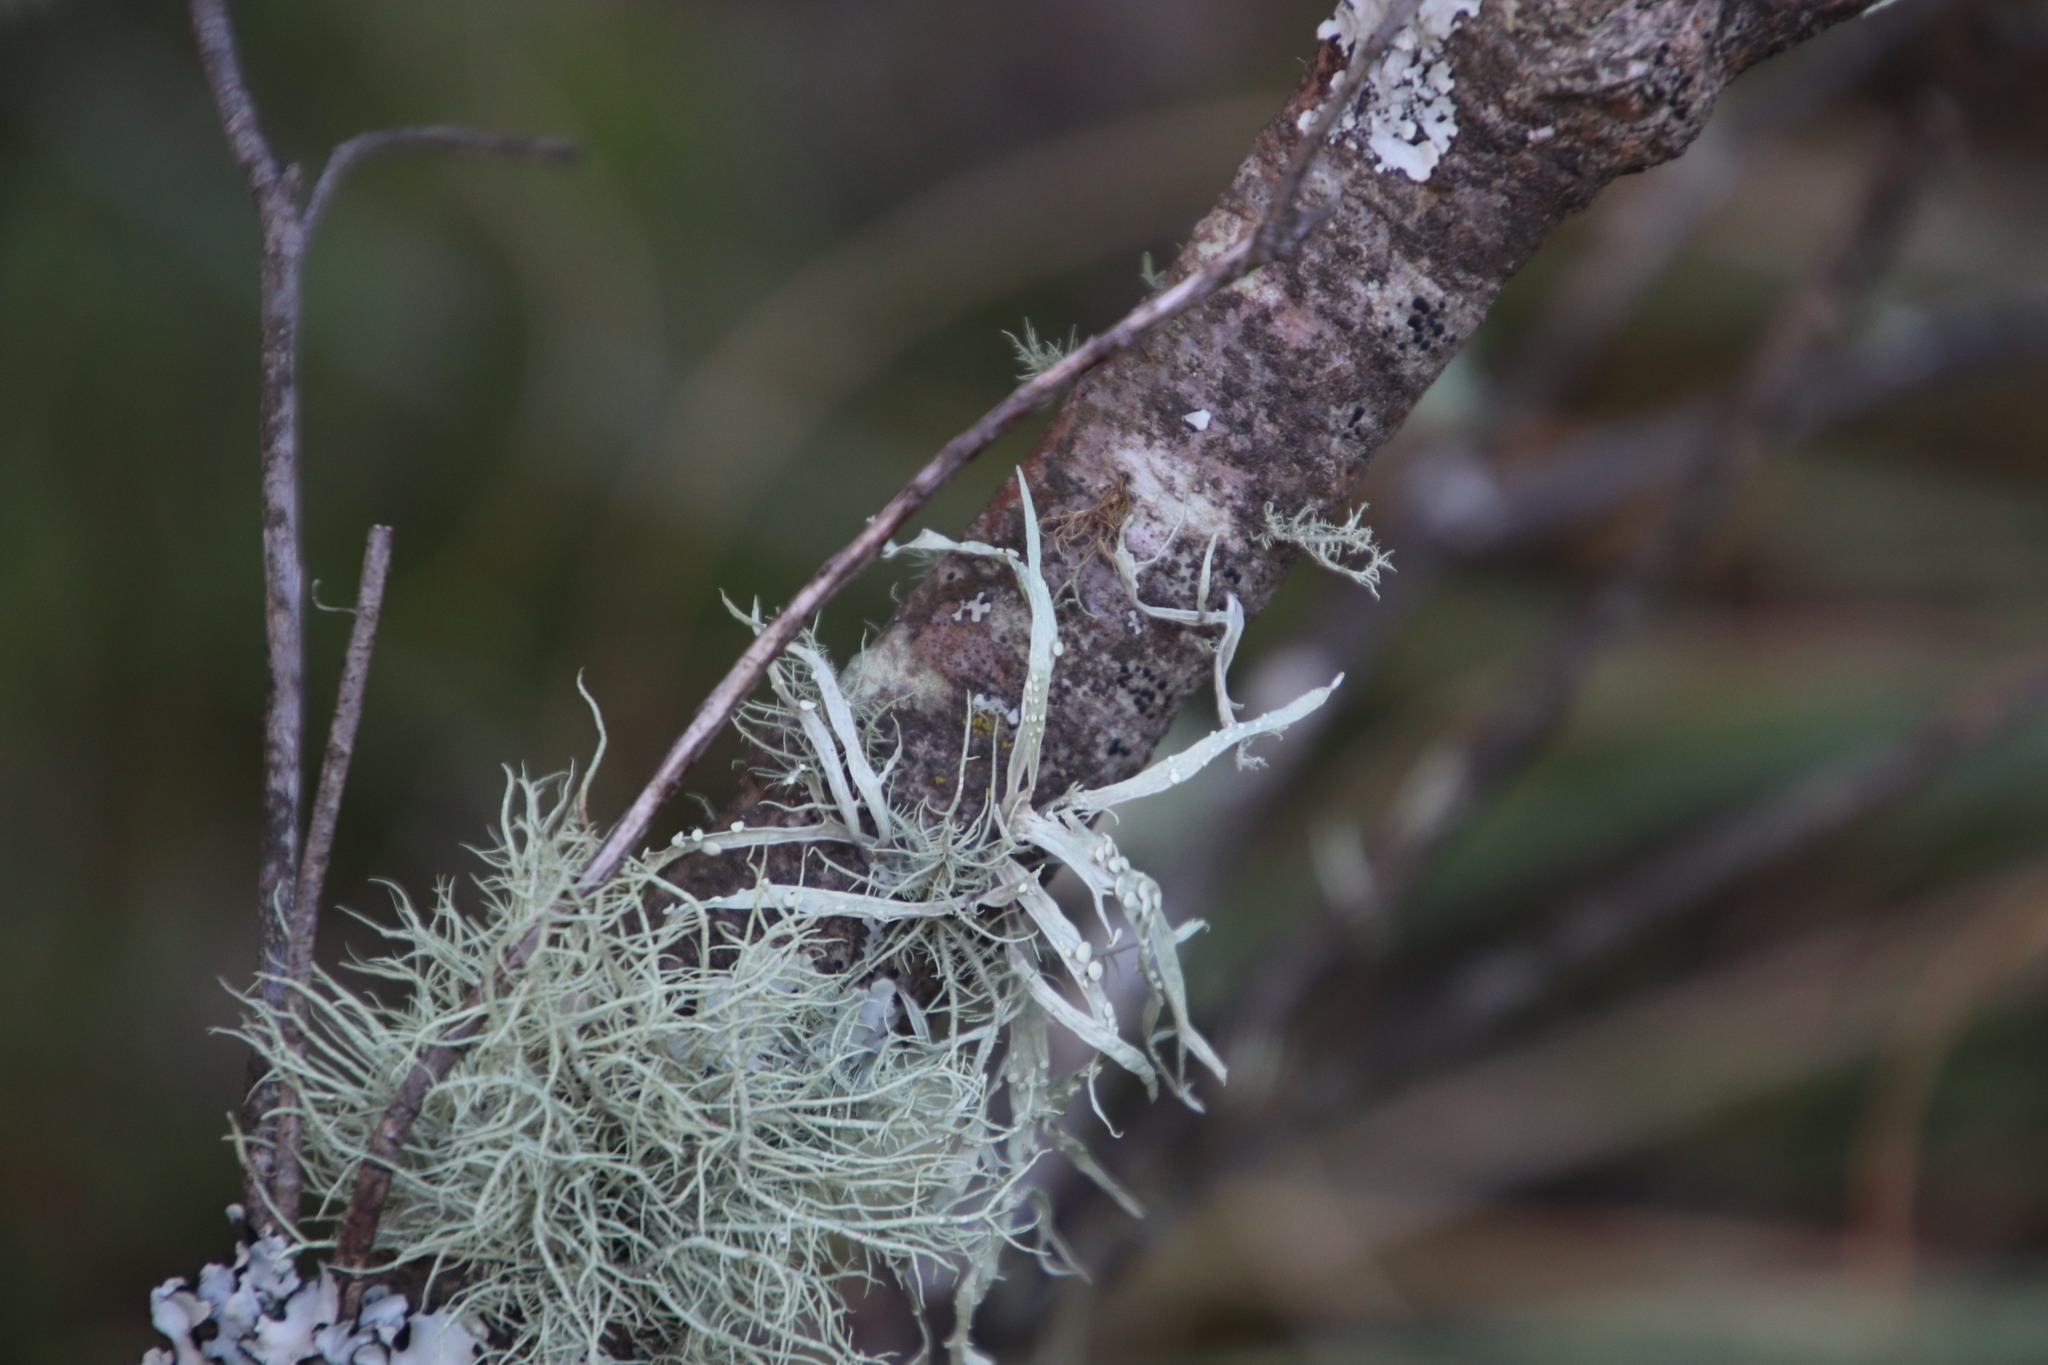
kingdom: Fungi
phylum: Ascomycota
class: Lecanoromycetes
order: Lecanorales
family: Ramalinaceae
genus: Ramalina
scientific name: Ramalina celastri
